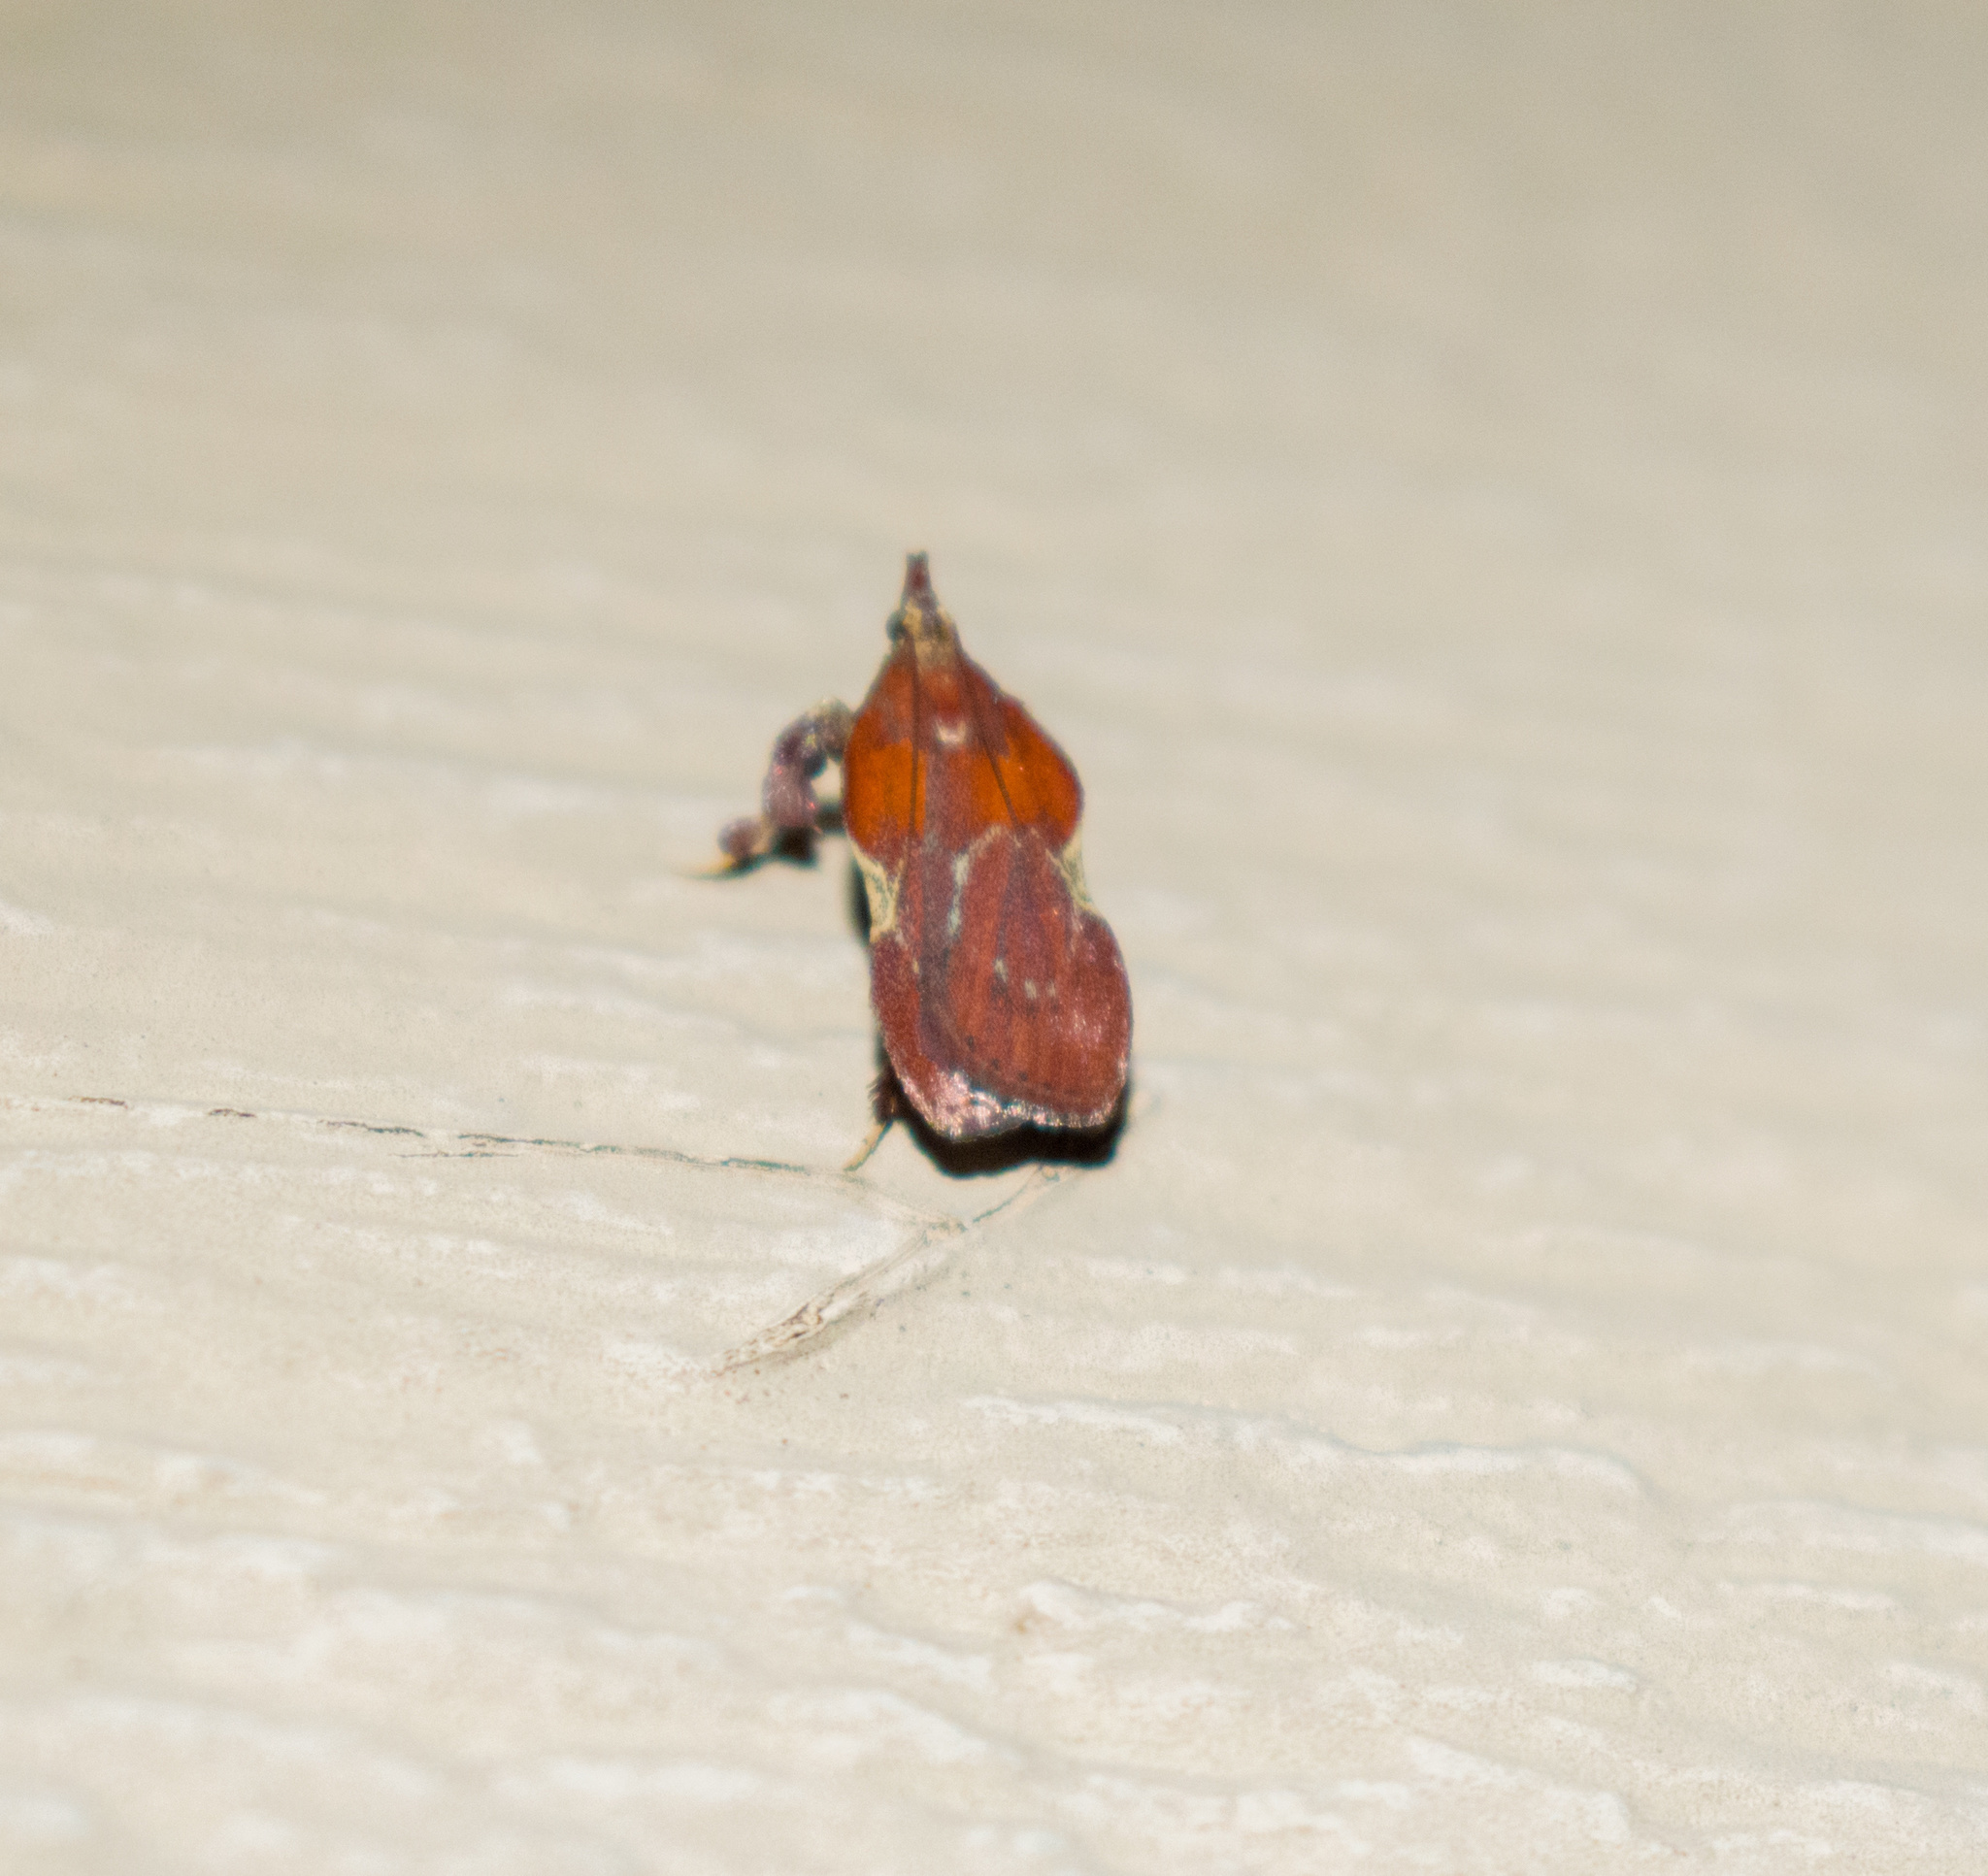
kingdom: Animalia
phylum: Arthropoda
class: Insecta
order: Lepidoptera
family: Pyralidae
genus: Galasa
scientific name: Galasa nigrinodis
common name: Boxwood leaftier moth
